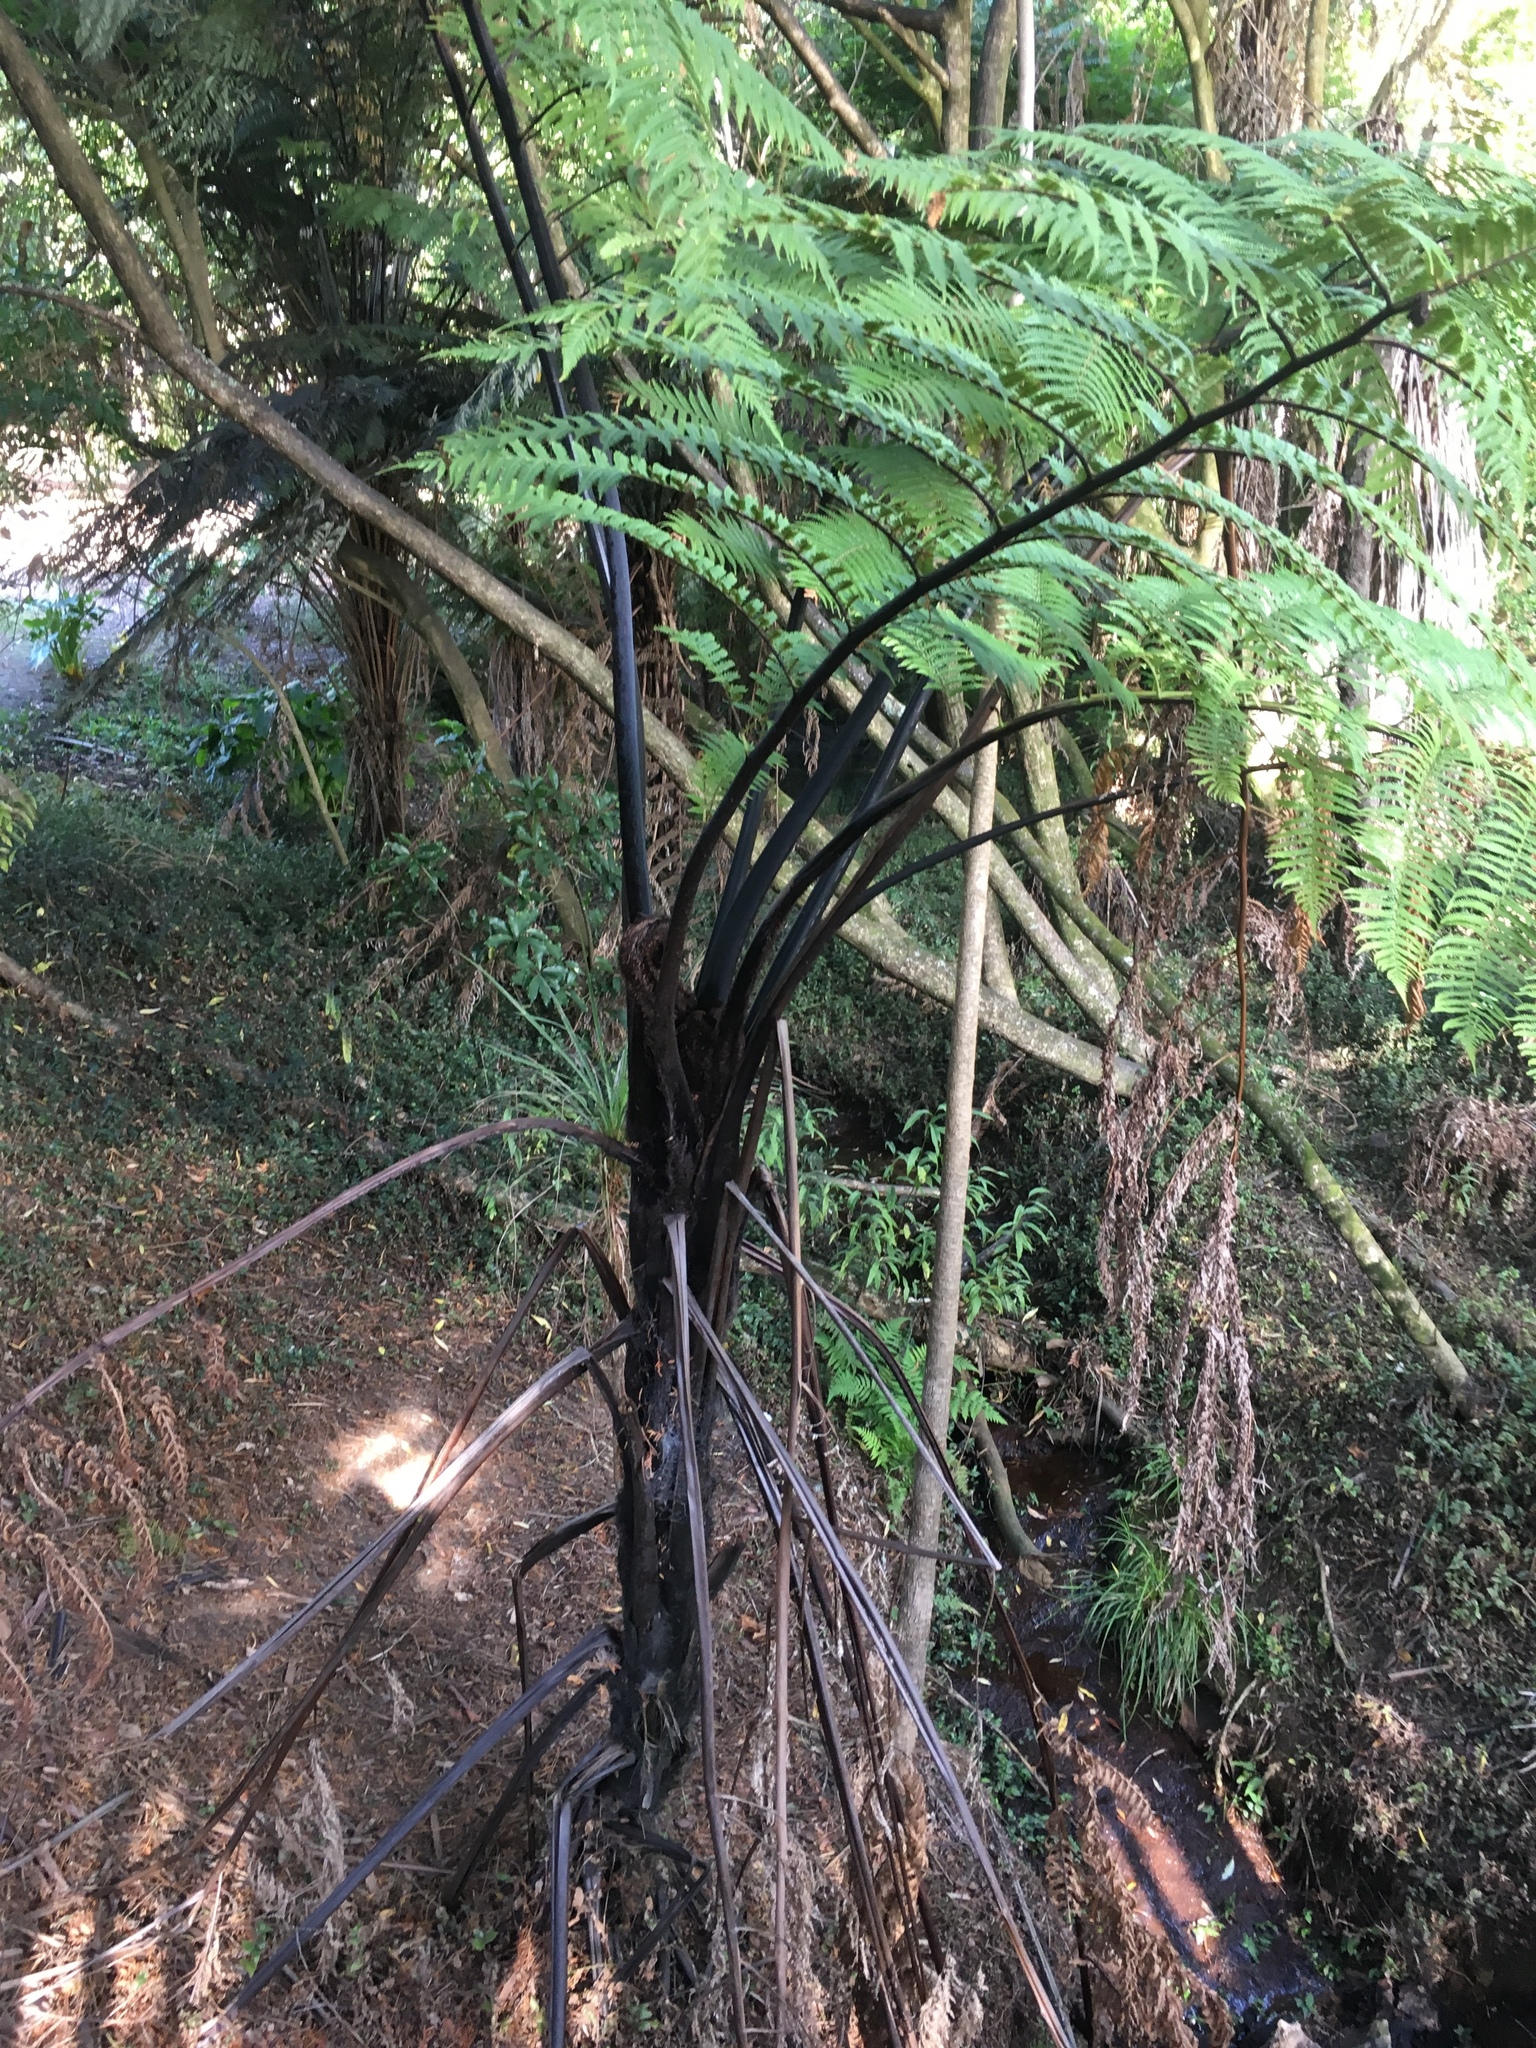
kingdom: Plantae
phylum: Tracheophyta
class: Polypodiopsida
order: Cyatheales
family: Cyatheaceae
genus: Sphaeropteris
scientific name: Sphaeropteris medullaris
